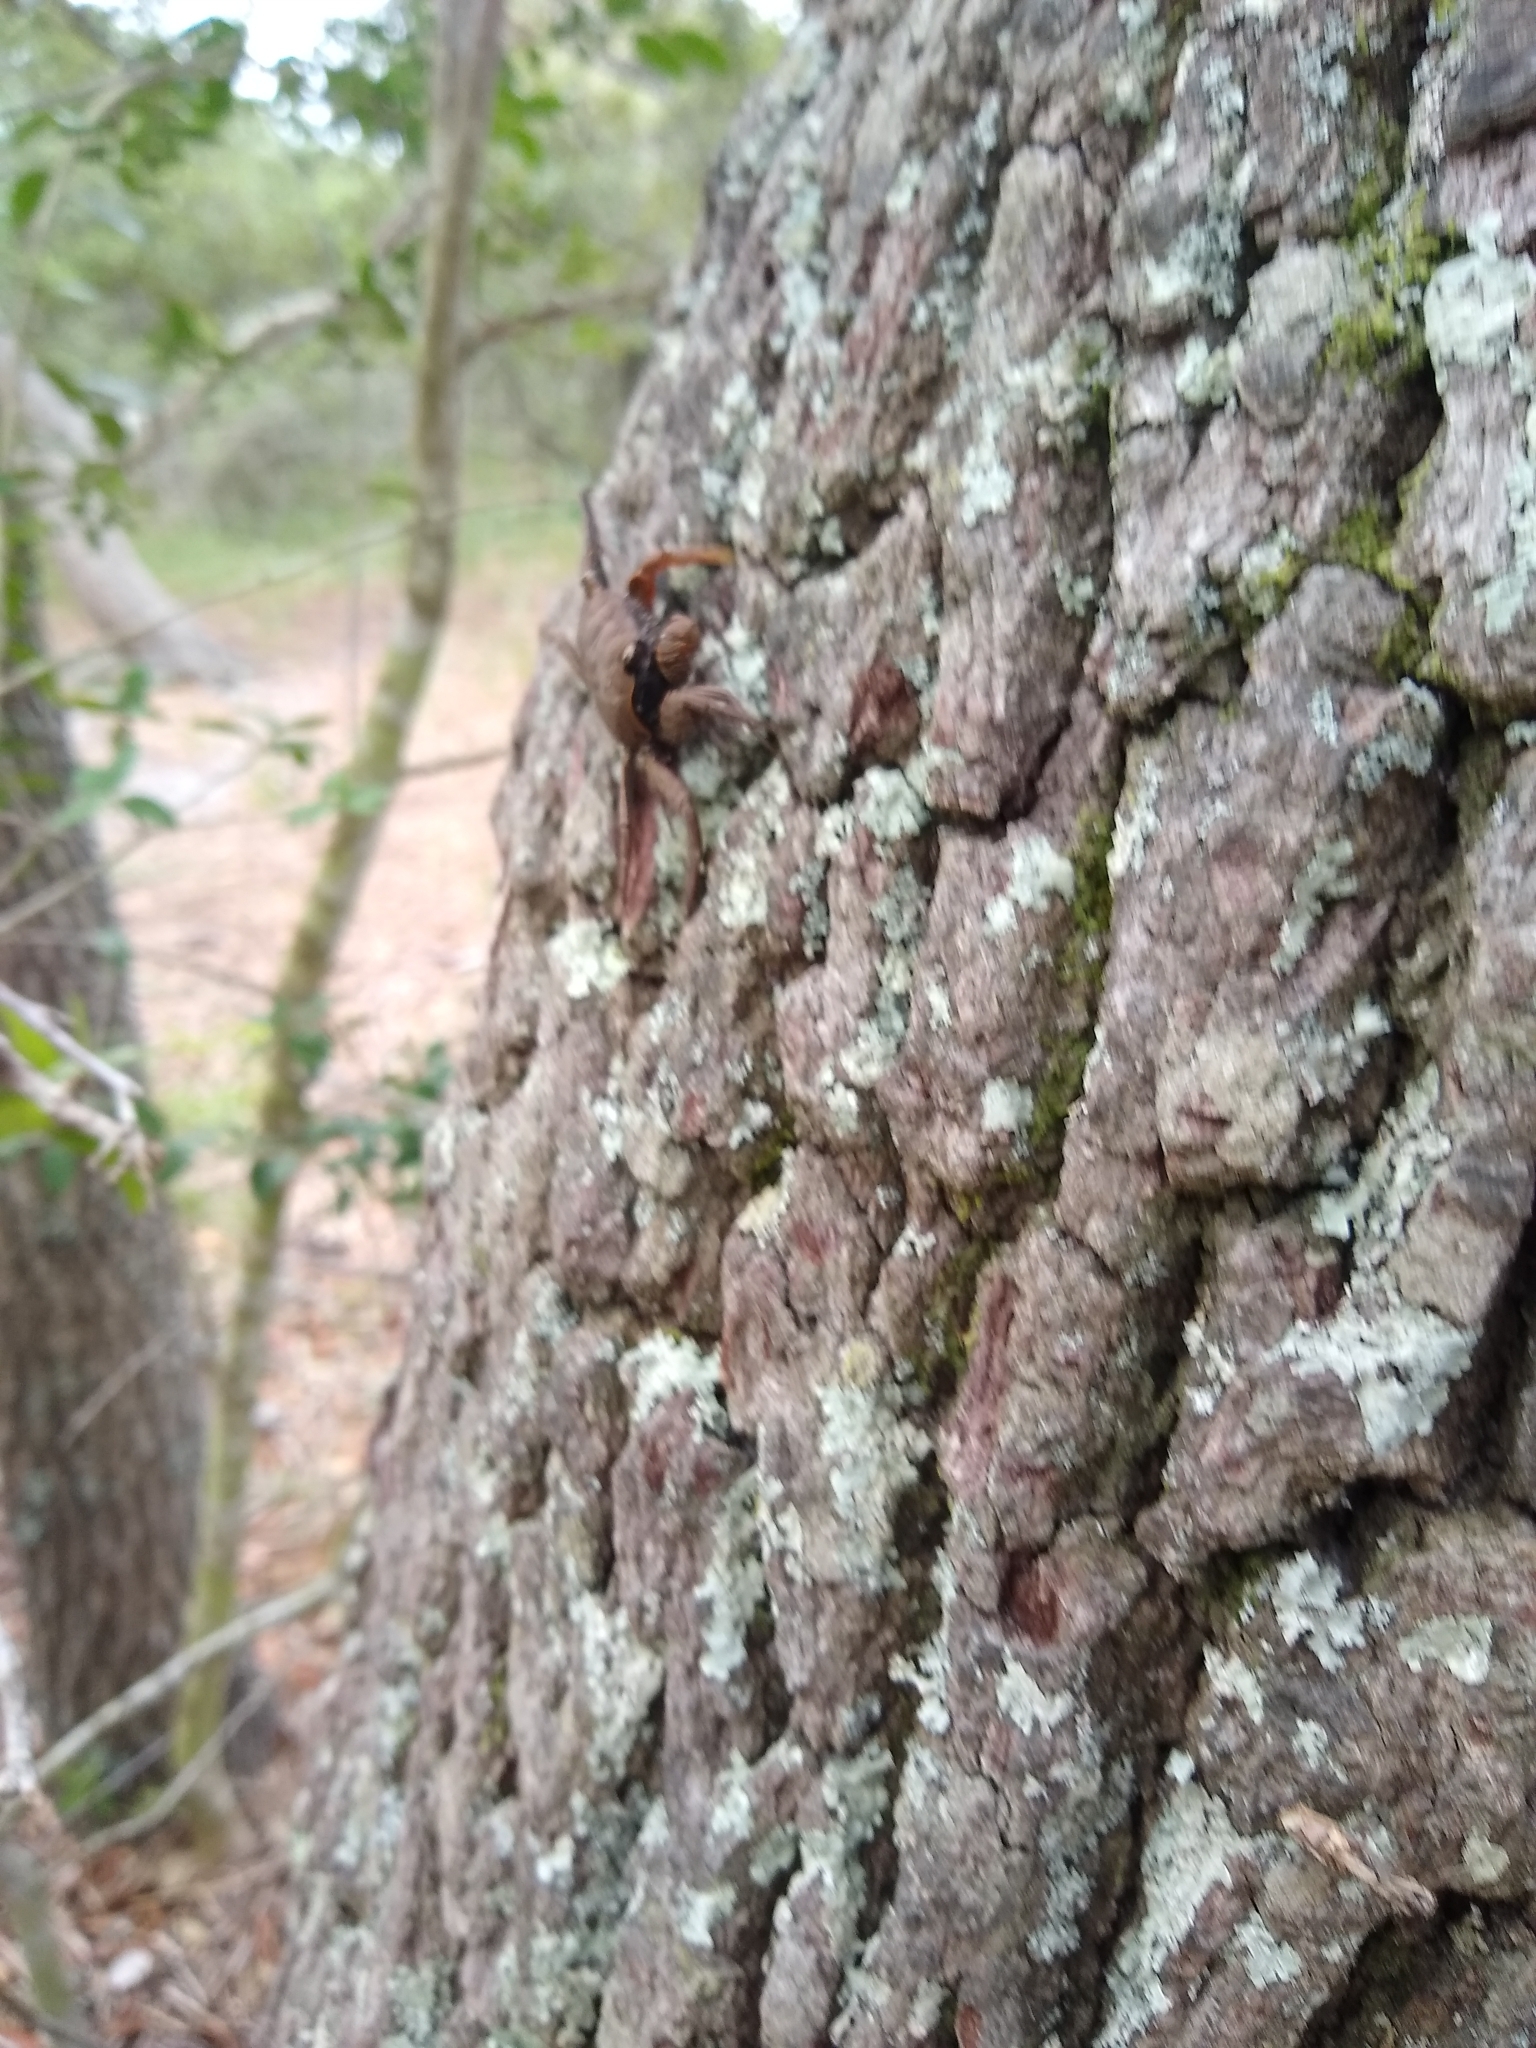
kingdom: Animalia
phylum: Arthropoda
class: Malacostraca
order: Decapoda
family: Sesarmidae
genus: Armases
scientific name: Armases cinereum
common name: Squareback marsh crab
